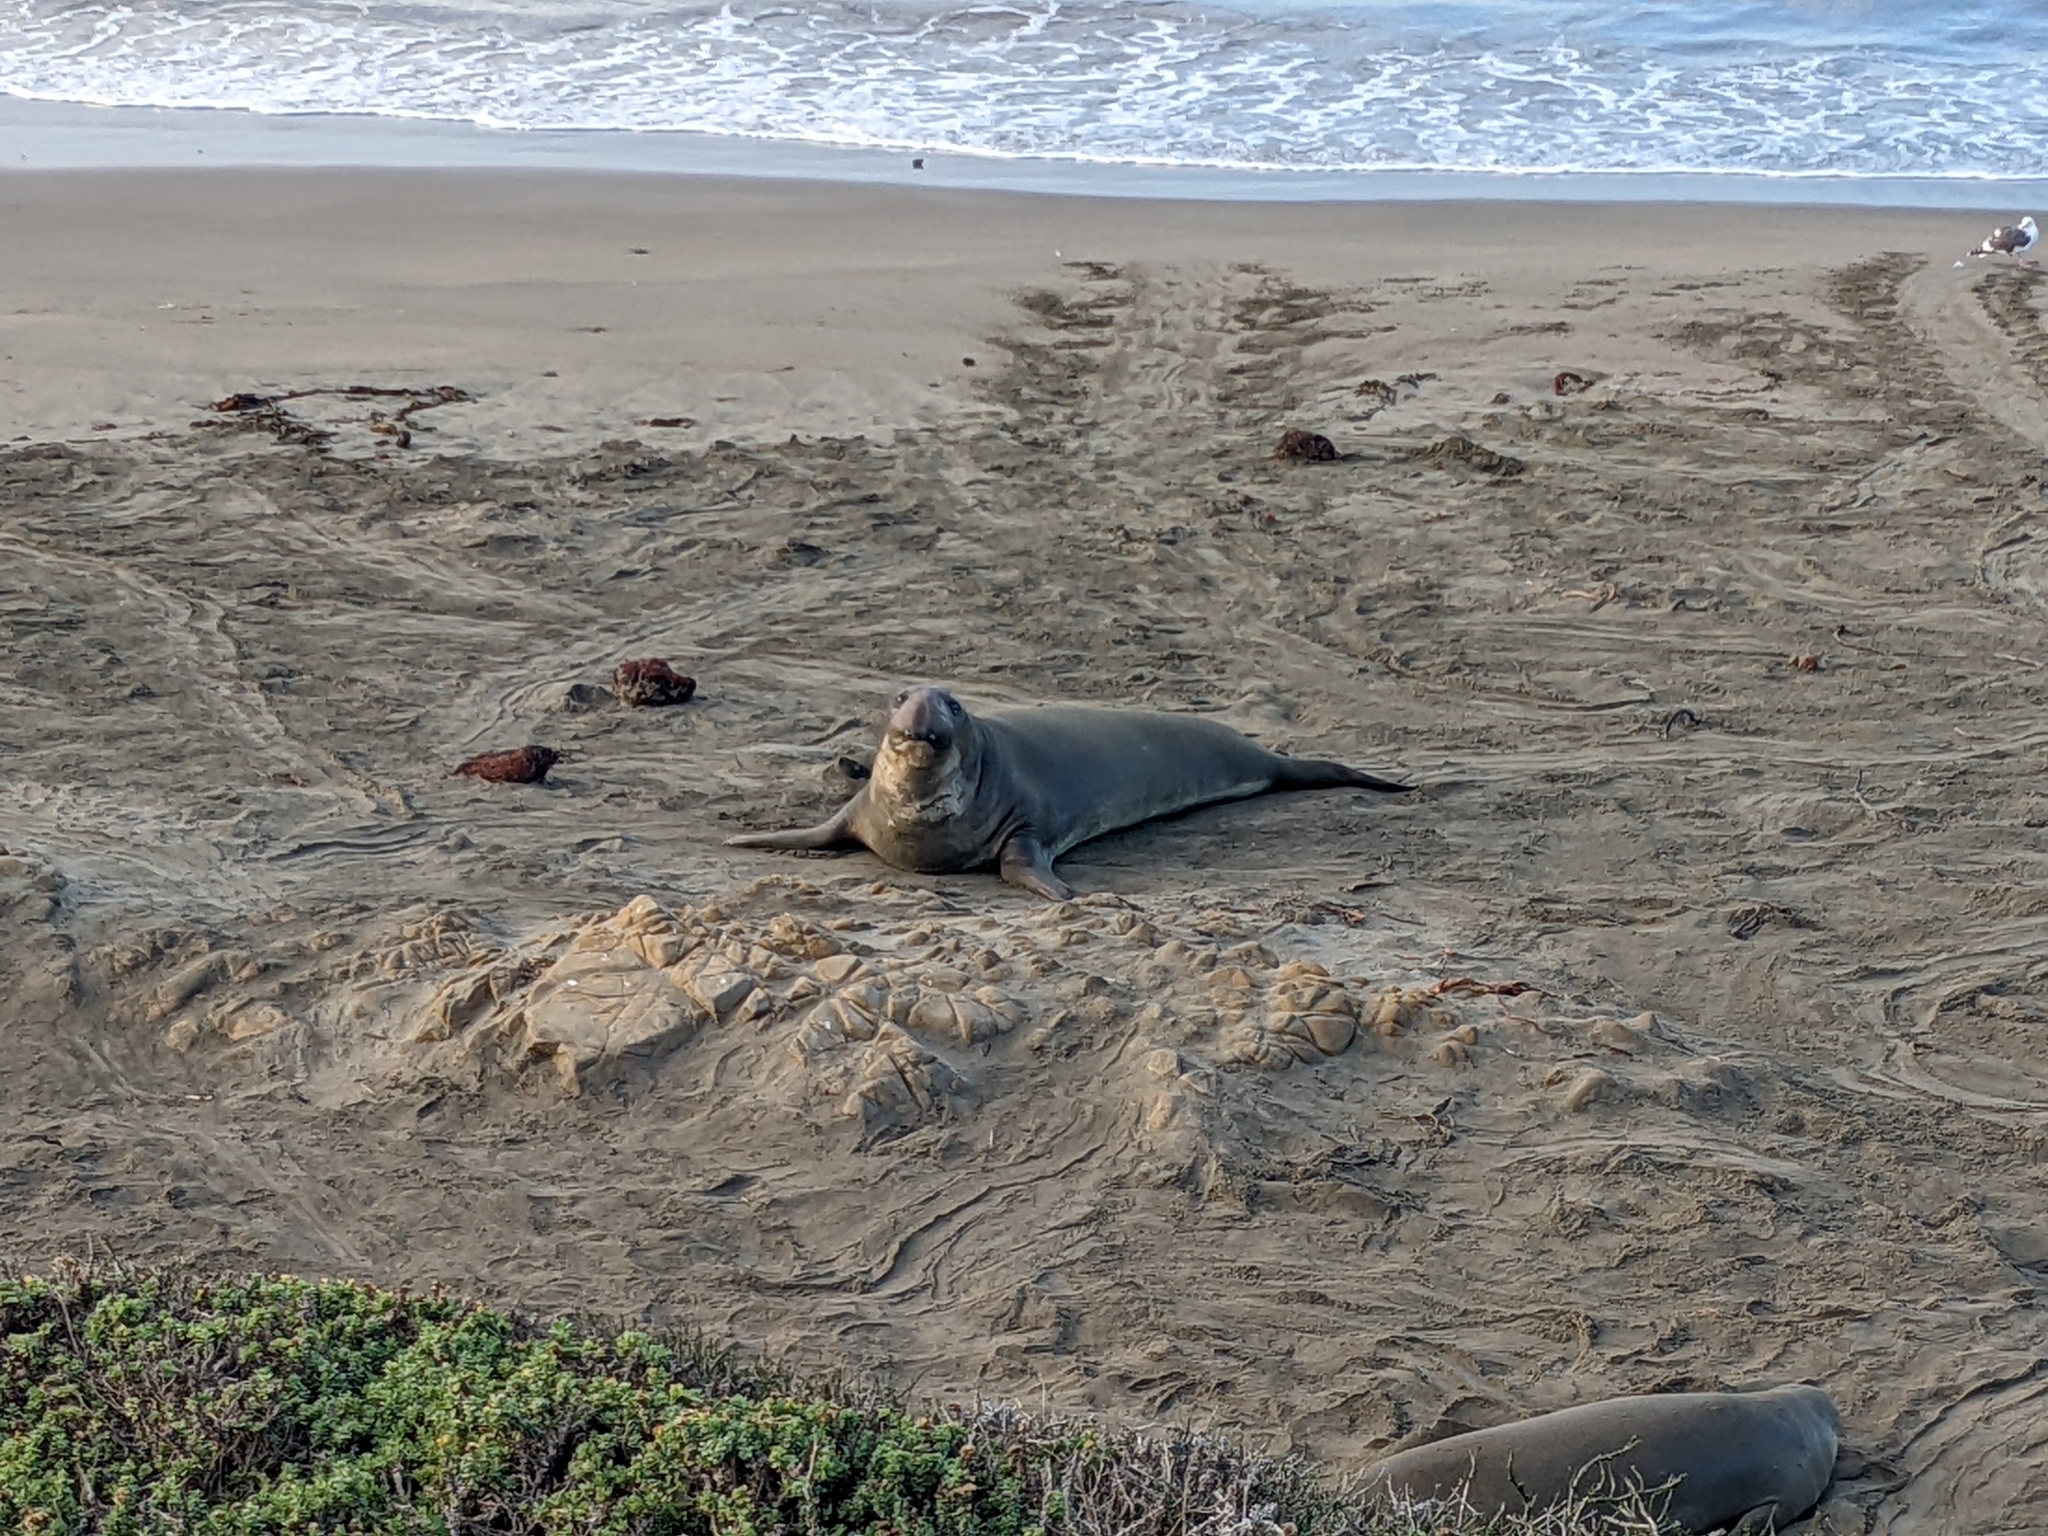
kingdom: Animalia
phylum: Chordata
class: Mammalia
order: Carnivora
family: Phocidae
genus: Mirounga
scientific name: Mirounga angustirostris
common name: Northern elephant seal
